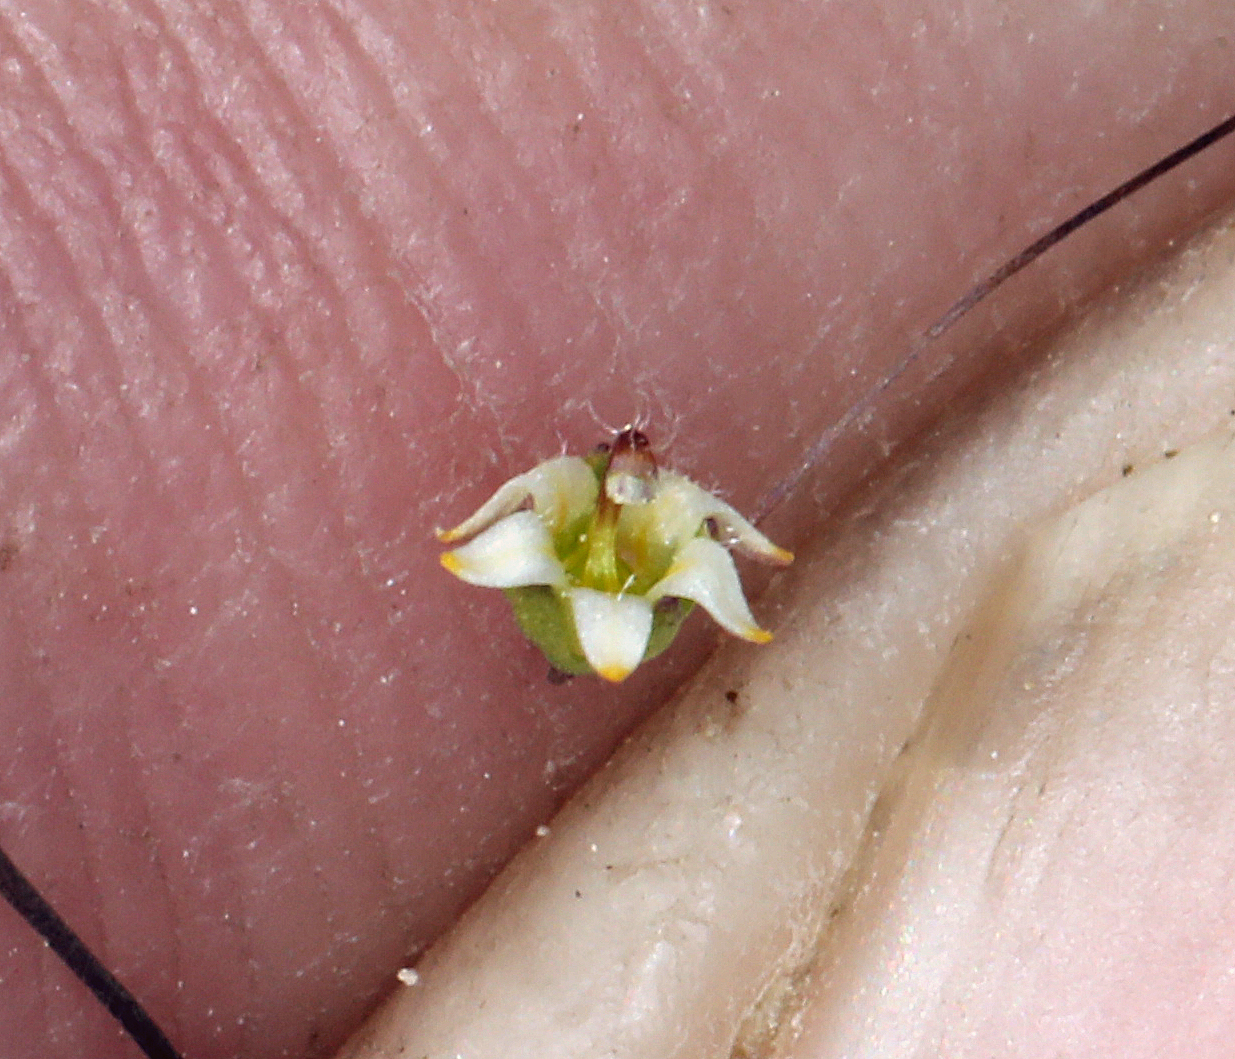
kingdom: Plantae
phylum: Tracheophyta
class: Magnoliopsida
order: Asterales
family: Campanulaceae
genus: Nemacladus
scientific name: Nemacladus eastwoodiae
